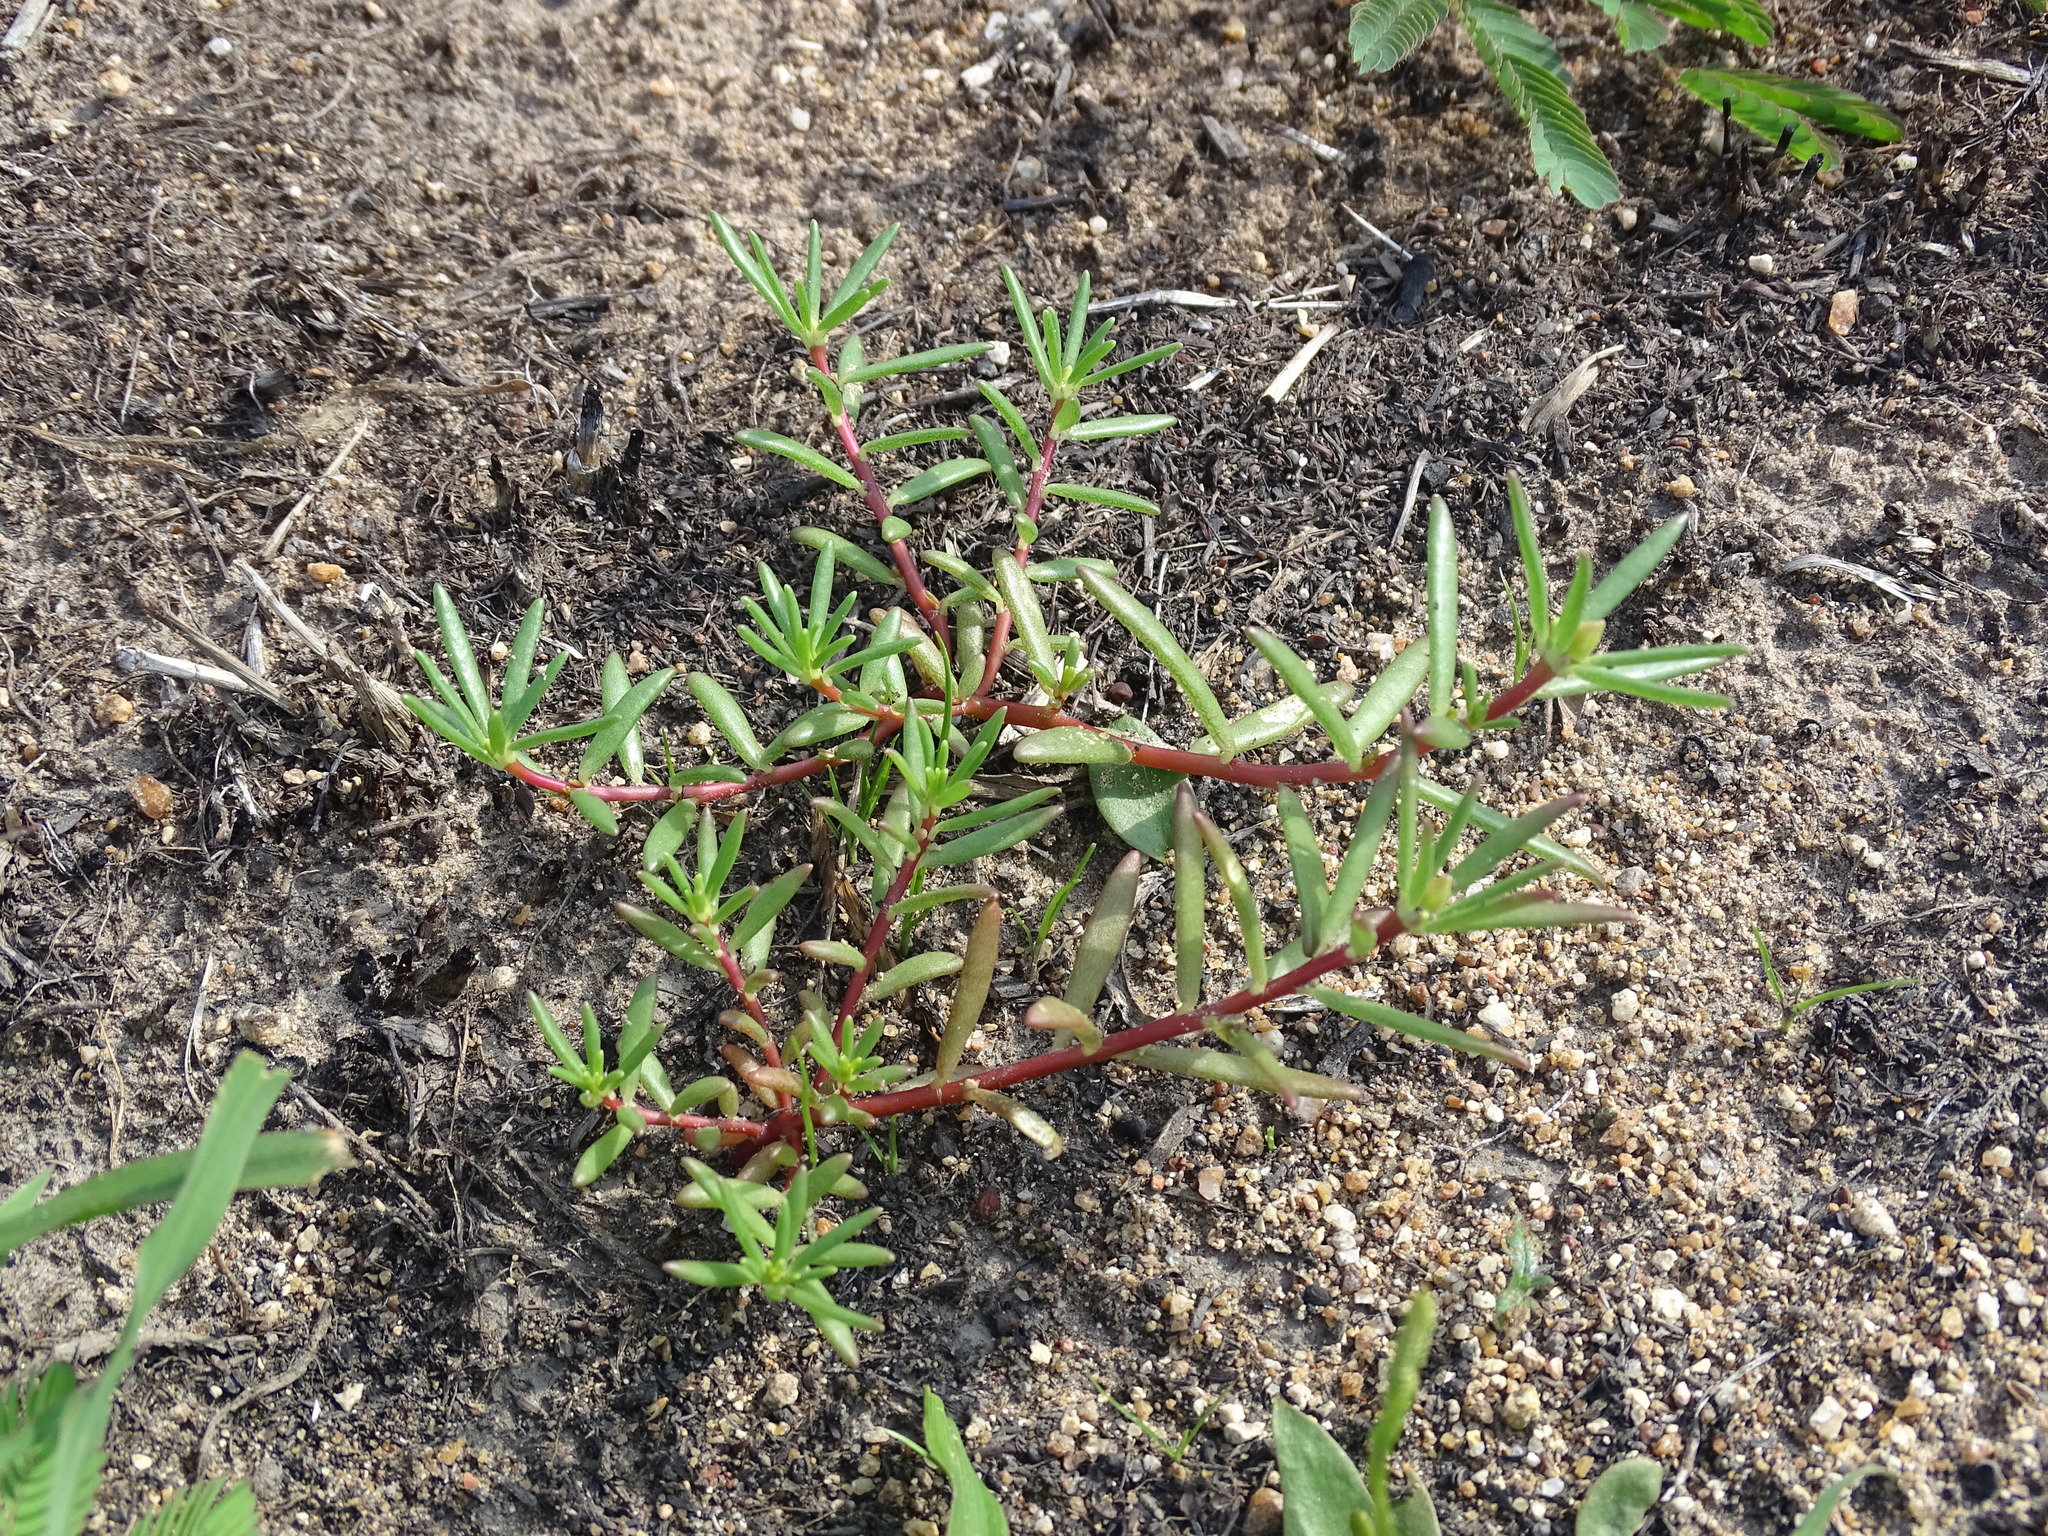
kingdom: Plantae
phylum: Tracheophyta
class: Magnoliopsida
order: Caryophyllales
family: Portulacaceae
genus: Portulaca
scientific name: Portulaca pilosa
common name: Kiss me quick
